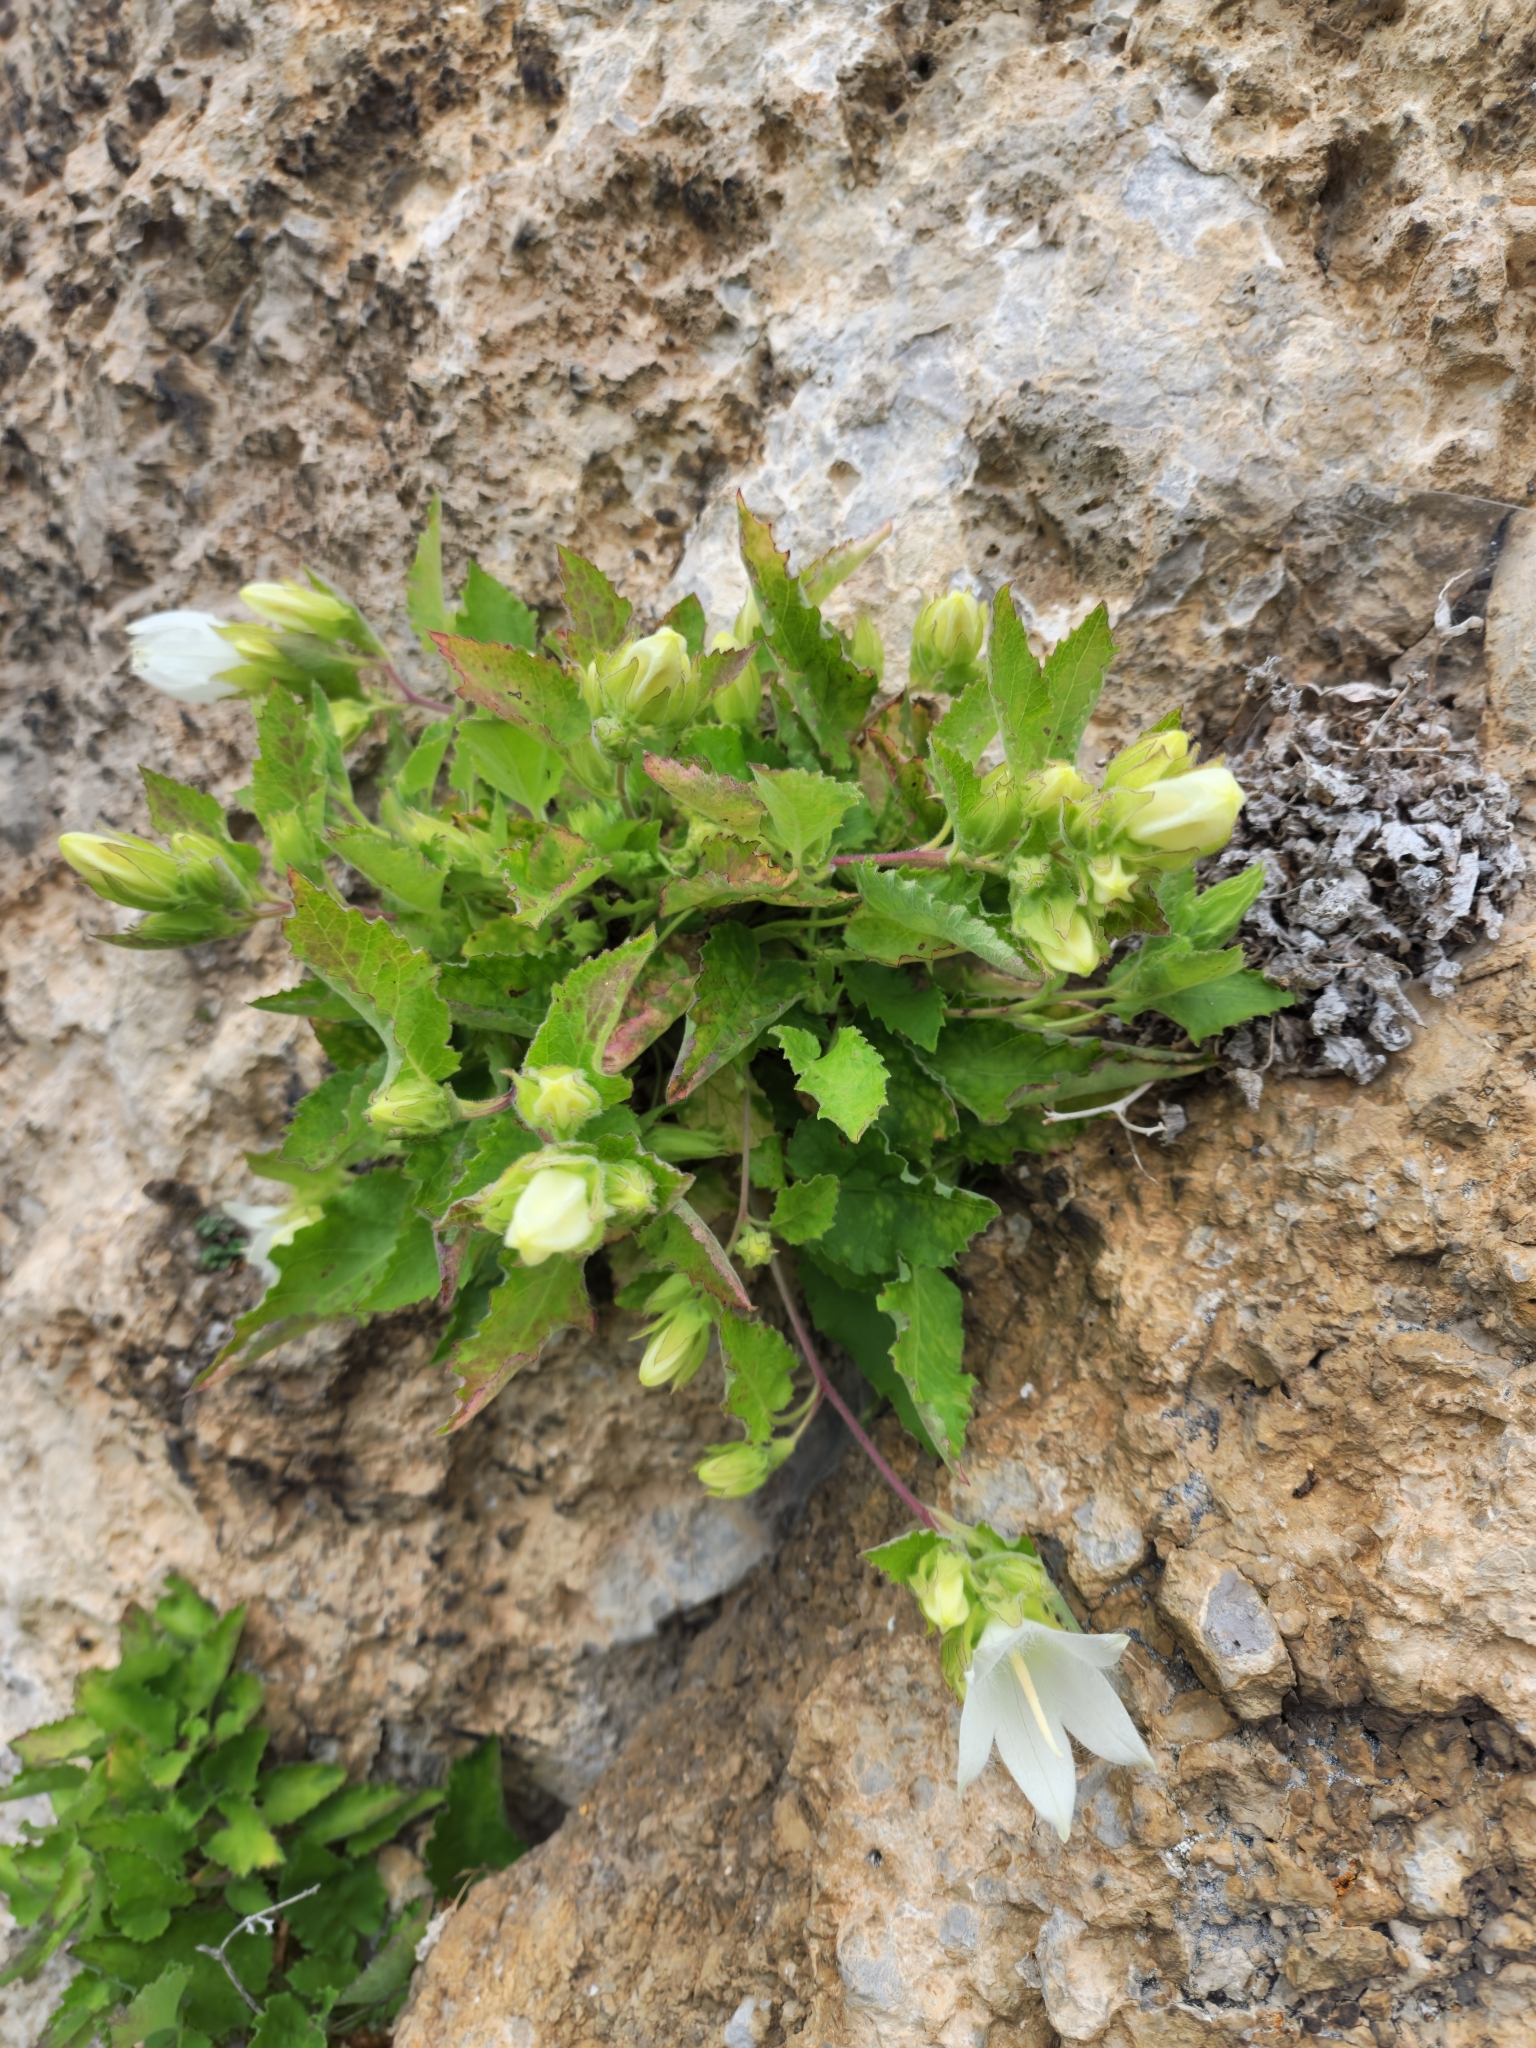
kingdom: Plantae
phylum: Tracheophyta
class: Magnoliopsida
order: Asterales
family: Campanulaceae
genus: Campanula
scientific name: Campanula pendula
